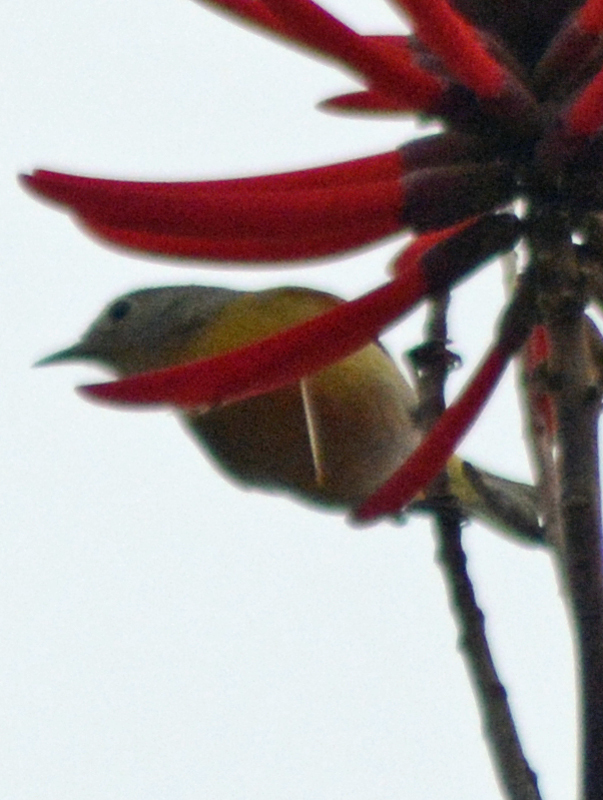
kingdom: Animalia
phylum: Chordata
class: Aves
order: Passeriformes
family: Parulidae
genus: Leiothlypis
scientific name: Leiothlypis ruficapilla
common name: Nashville warbler
